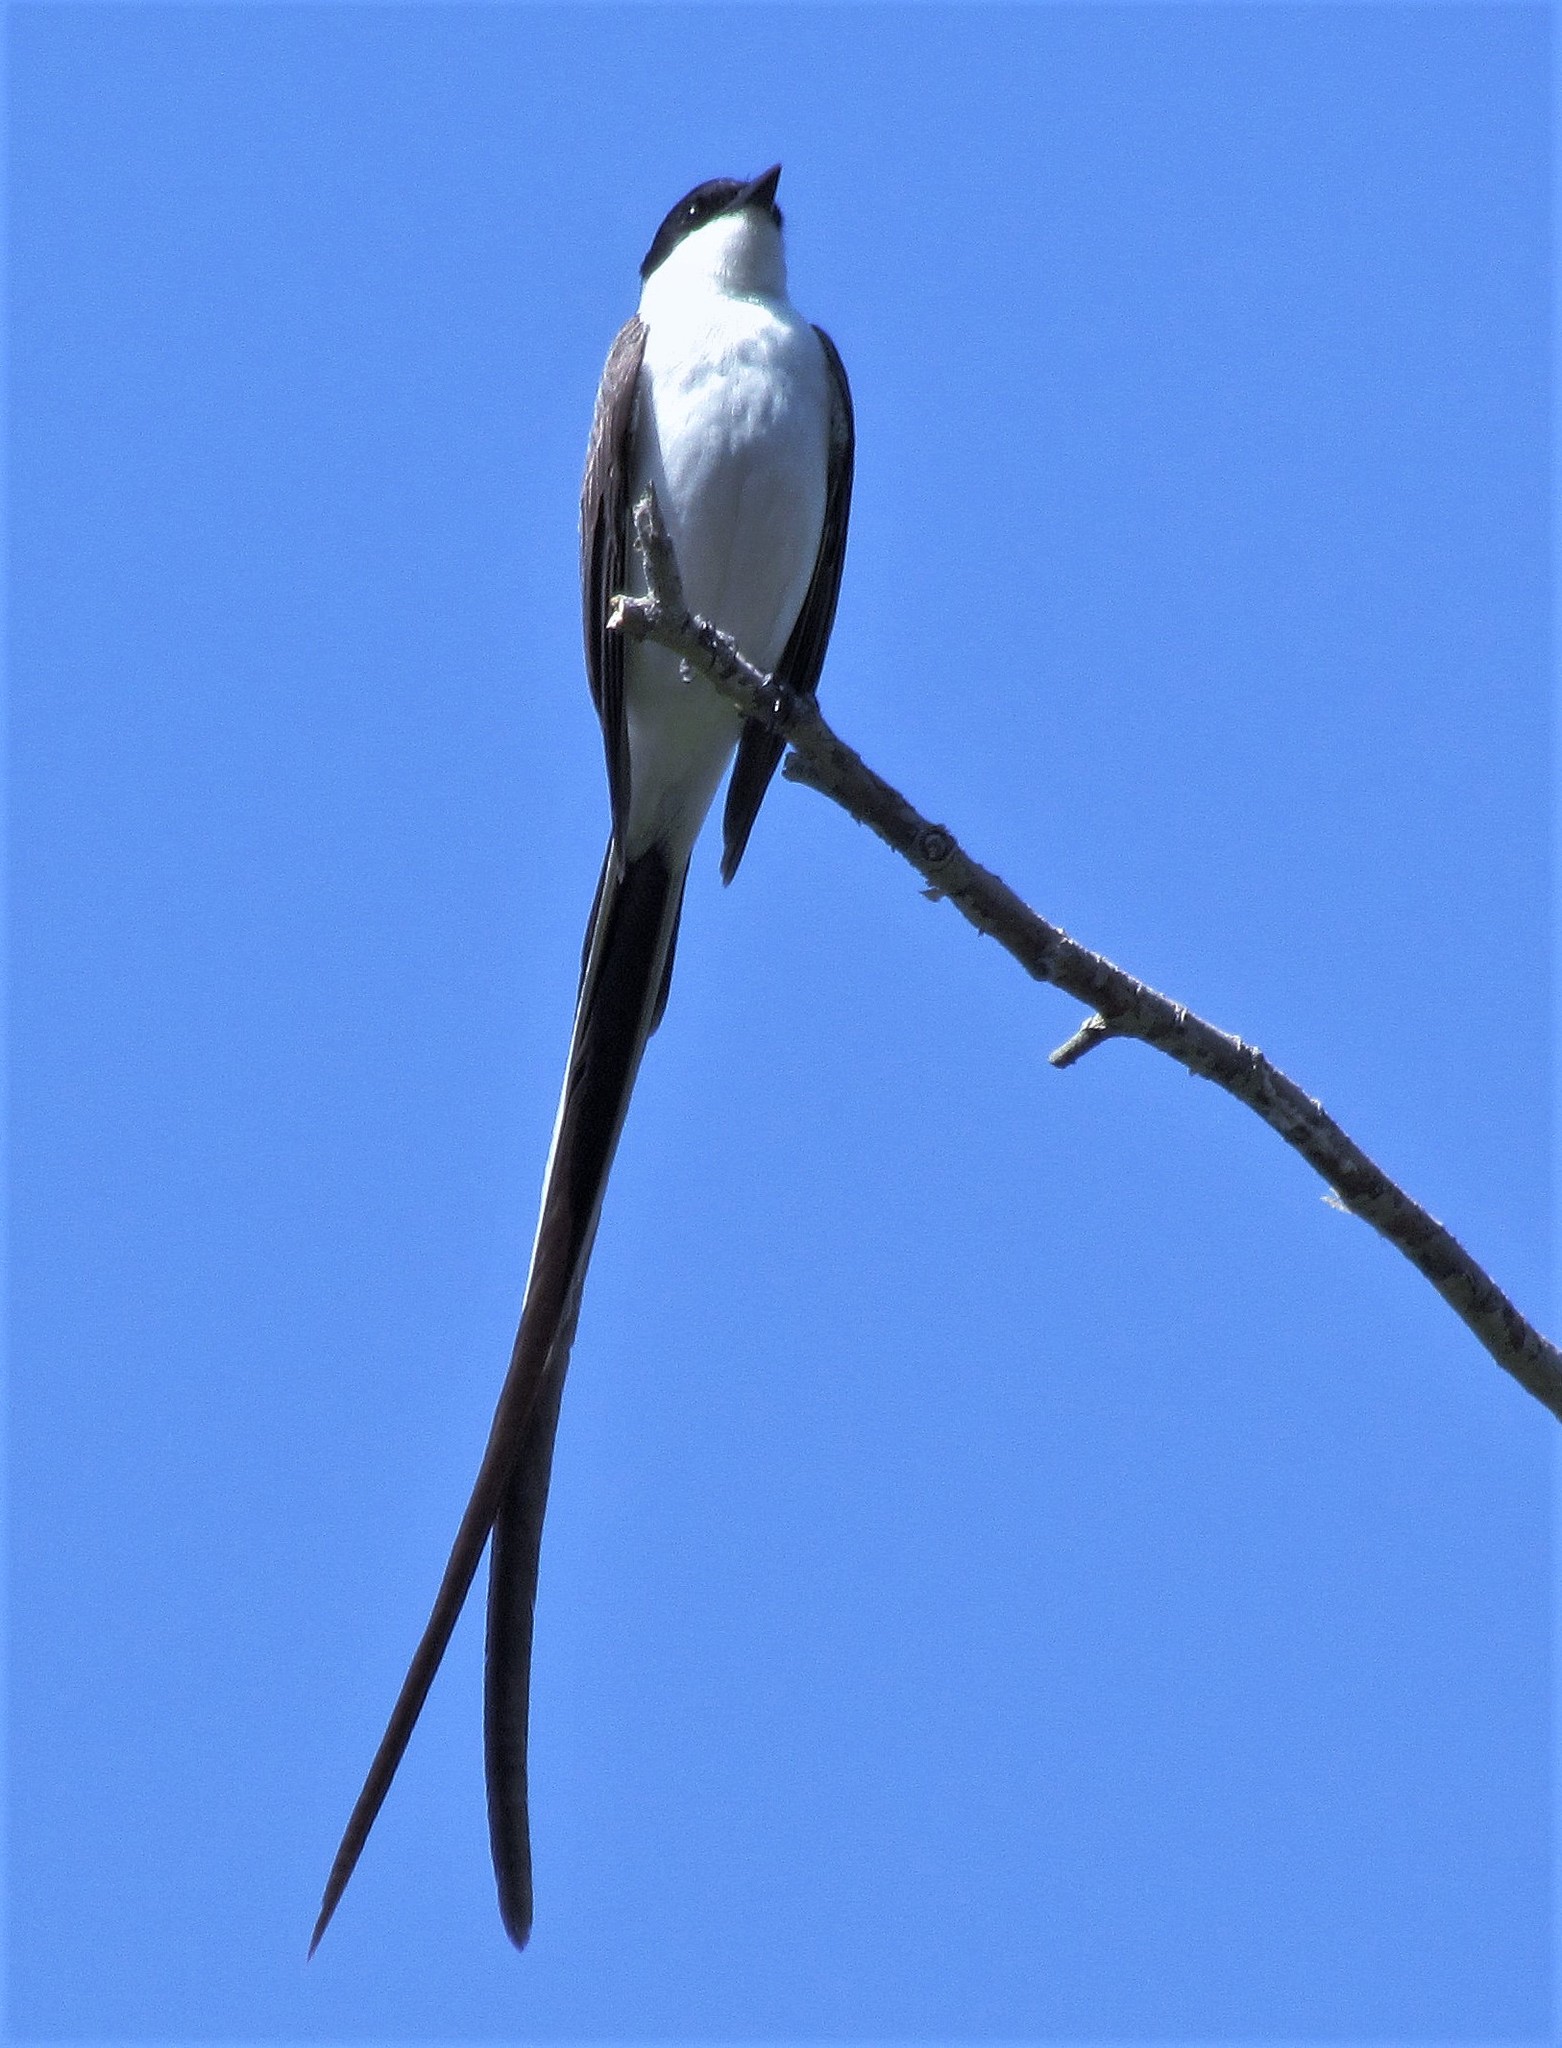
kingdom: Animalia
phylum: Chordata
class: Aves
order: Passeriformes
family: Tyrannidae
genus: Tyrannus
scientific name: Tyrannus savana
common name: Fork-tailed flycatcher
